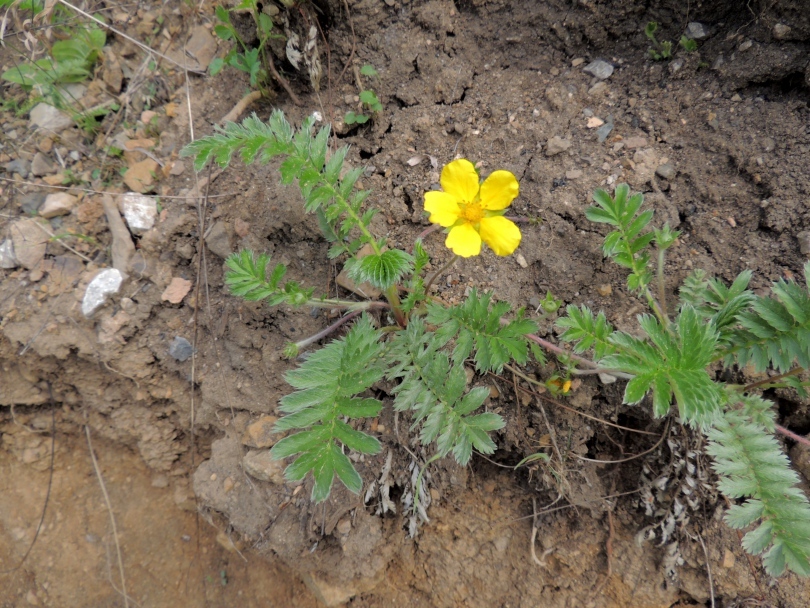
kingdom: Plantae
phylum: Tracheophyta
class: Magnoliopsida
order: Rosales
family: Rosaceae
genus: Argentina
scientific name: Argentina anserina
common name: Common silverweed
